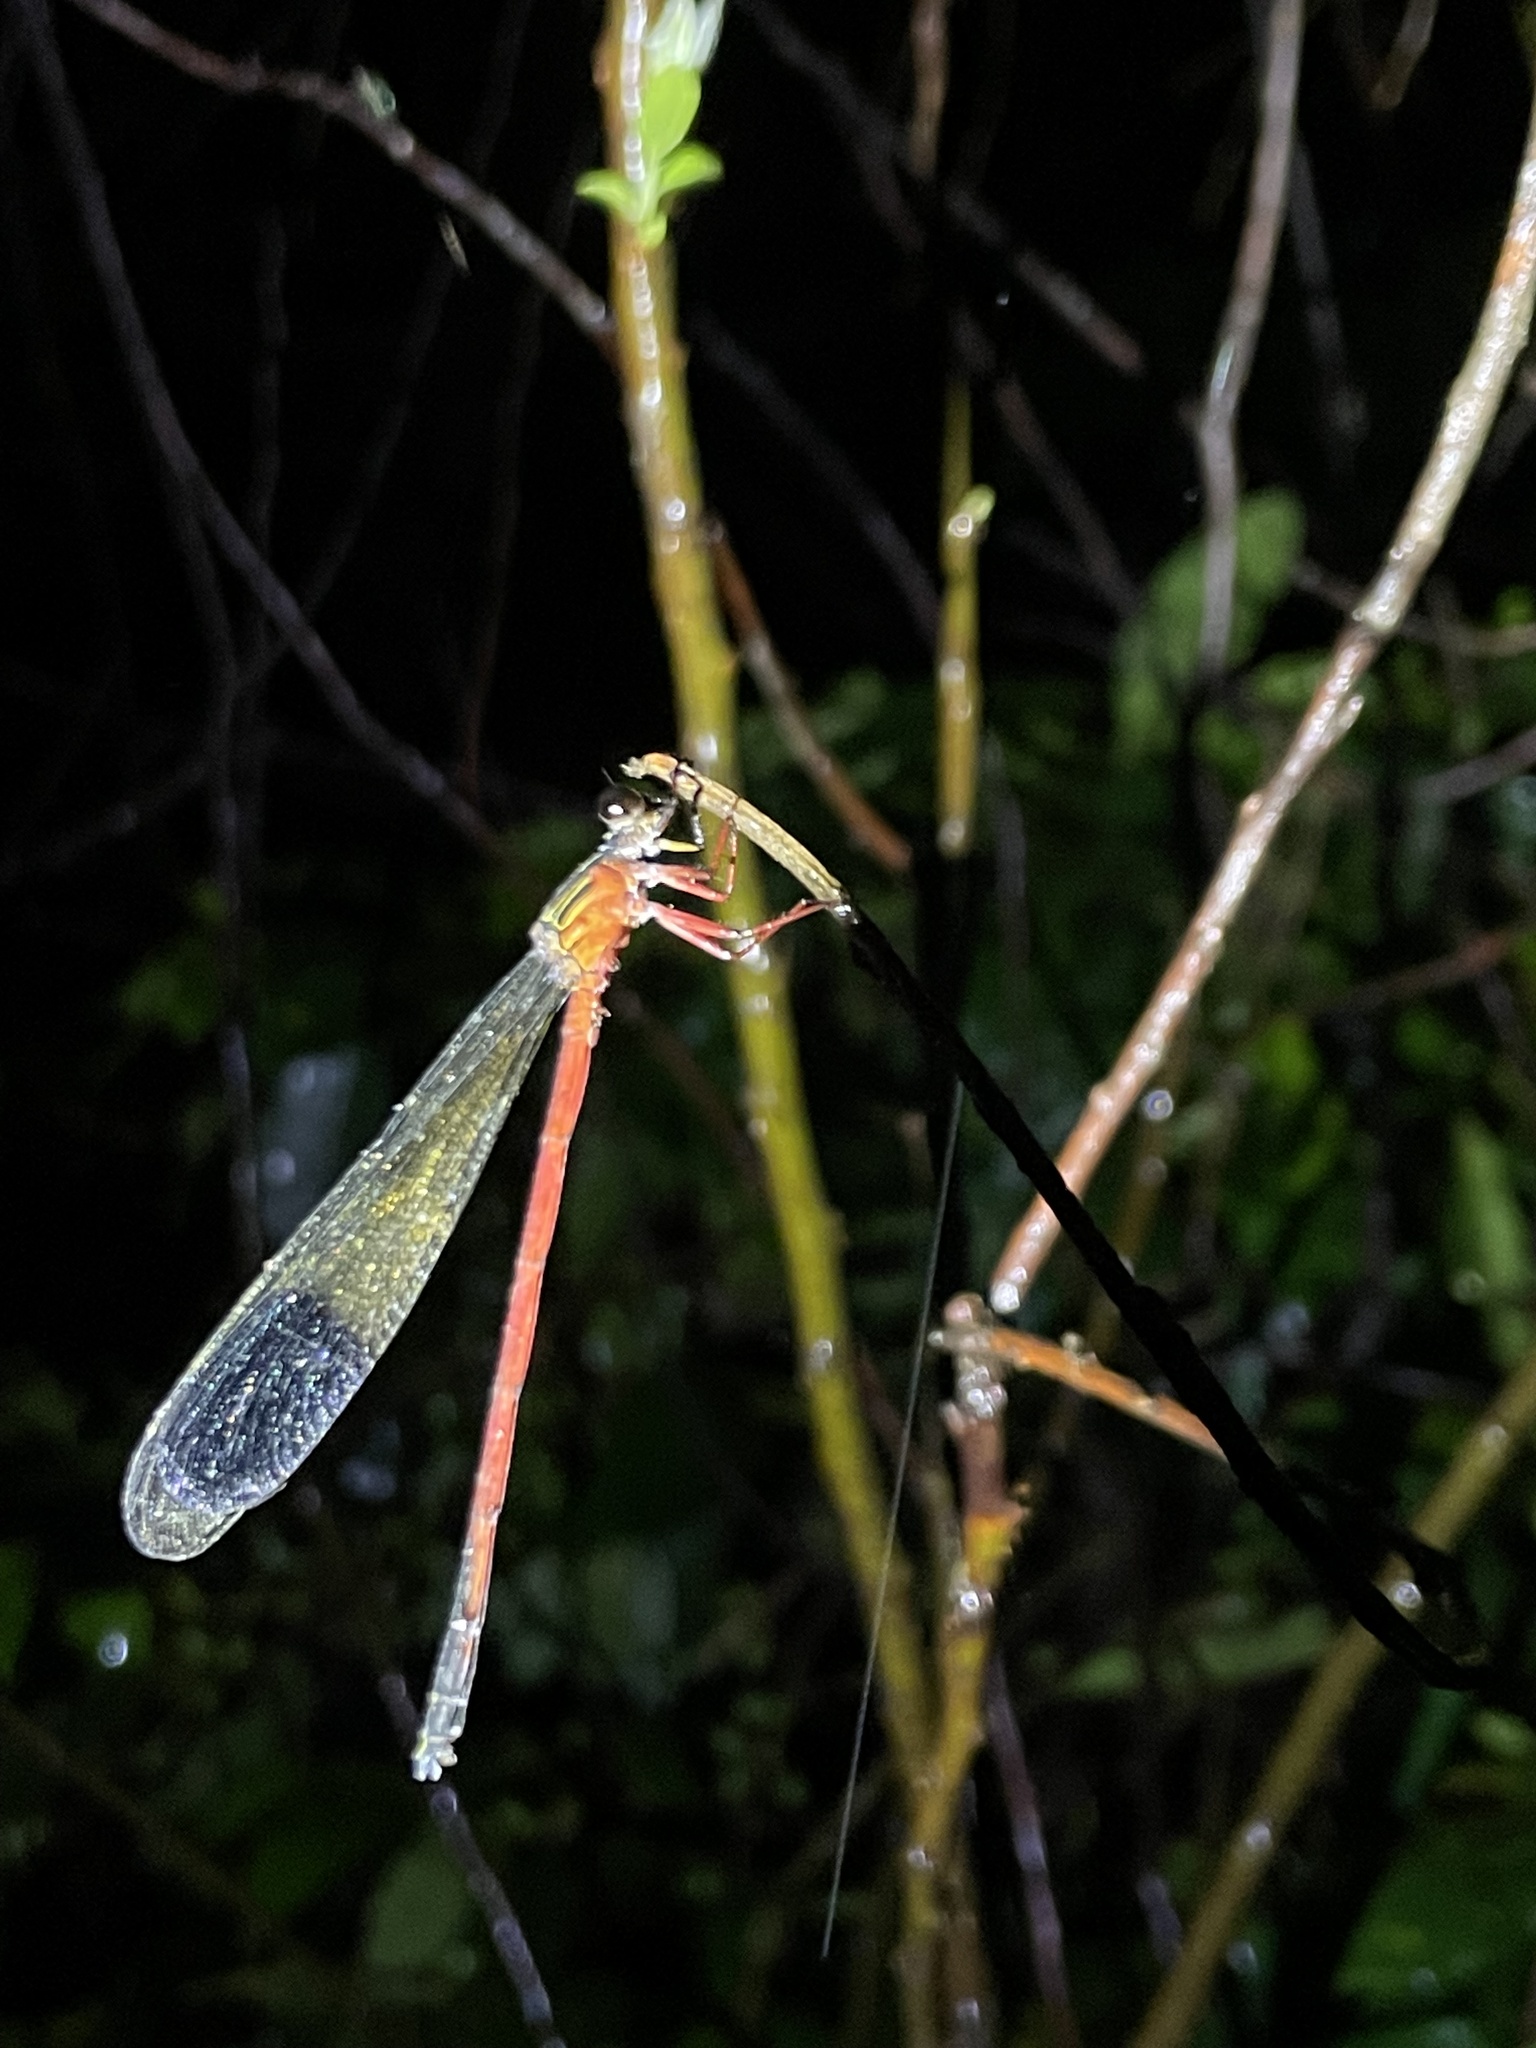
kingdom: Animalia
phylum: Arthropoda
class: Insecta
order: Odonata
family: Euphaeidae
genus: Euphaea
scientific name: Euphaea fraseri
